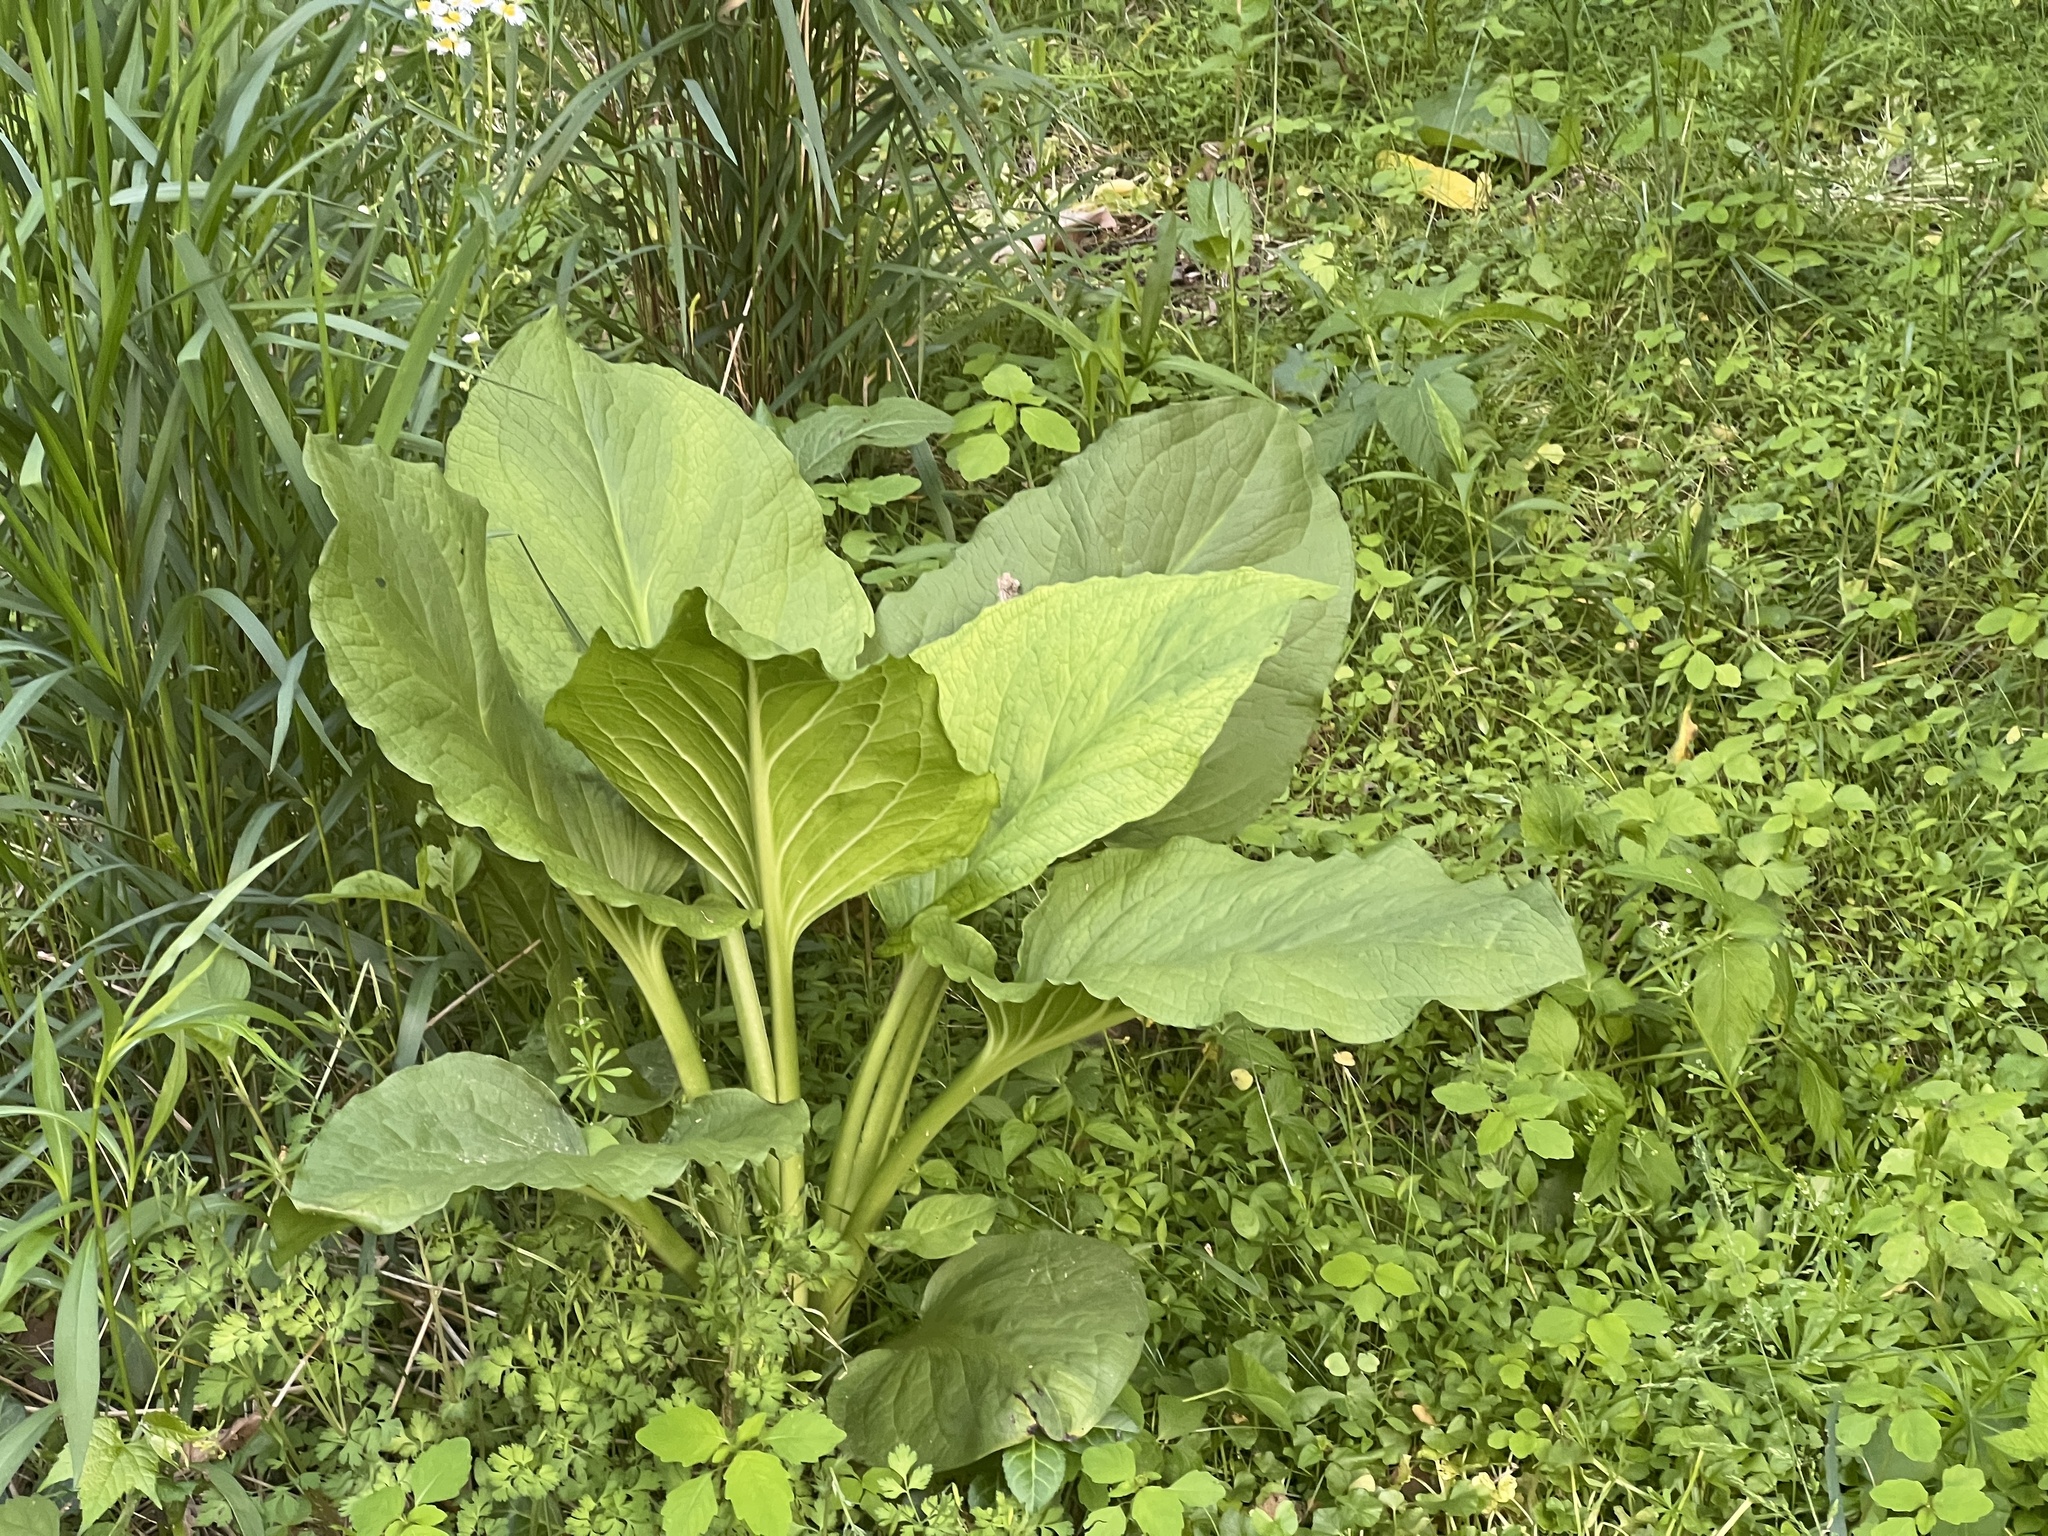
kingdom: Plantae
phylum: Tracheophyta
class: Liliopsida
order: Alismatales
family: Araceae
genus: Symplocarpus
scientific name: Symplocarpus foetidus
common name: Eastern skunk cabbage
